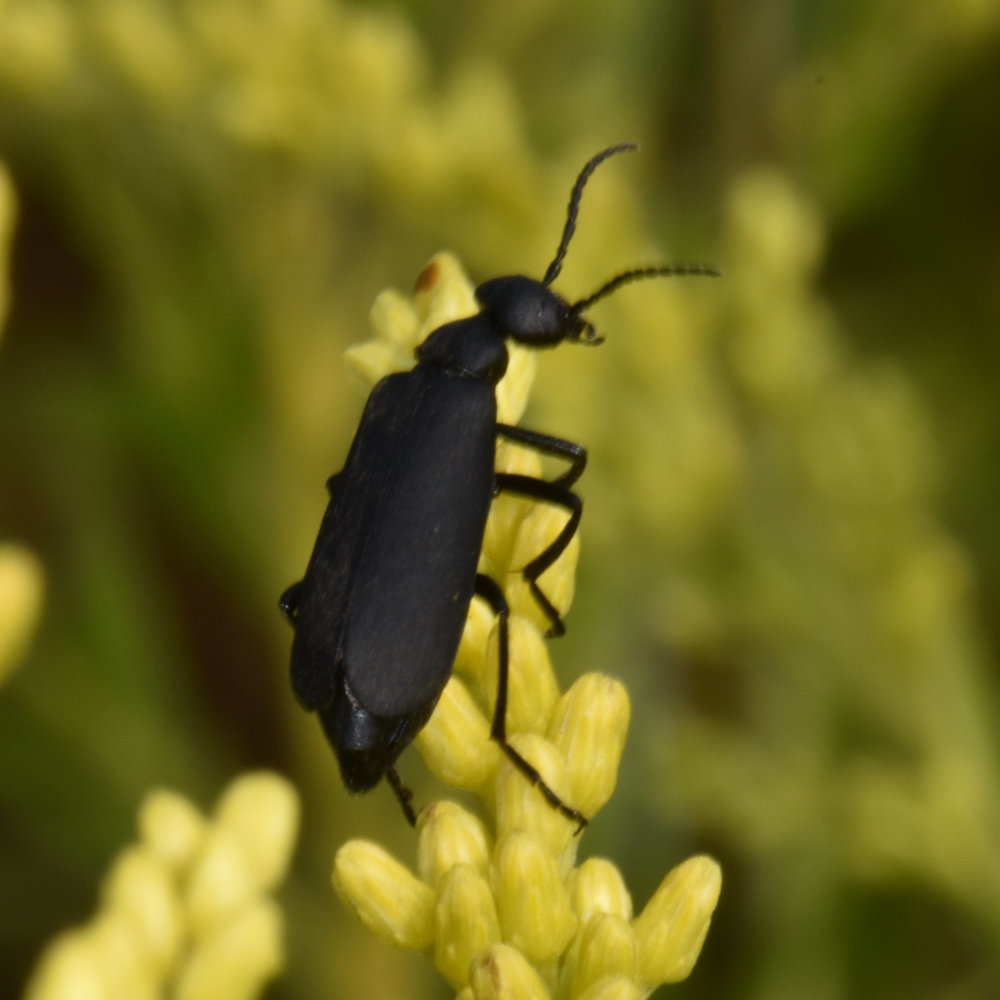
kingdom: Animalia
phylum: Arthropoda
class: Insecta
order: Coleoptera
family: Meloidae
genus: Epicauta
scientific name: Epicauta pensylvanica
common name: Black blister beetle
